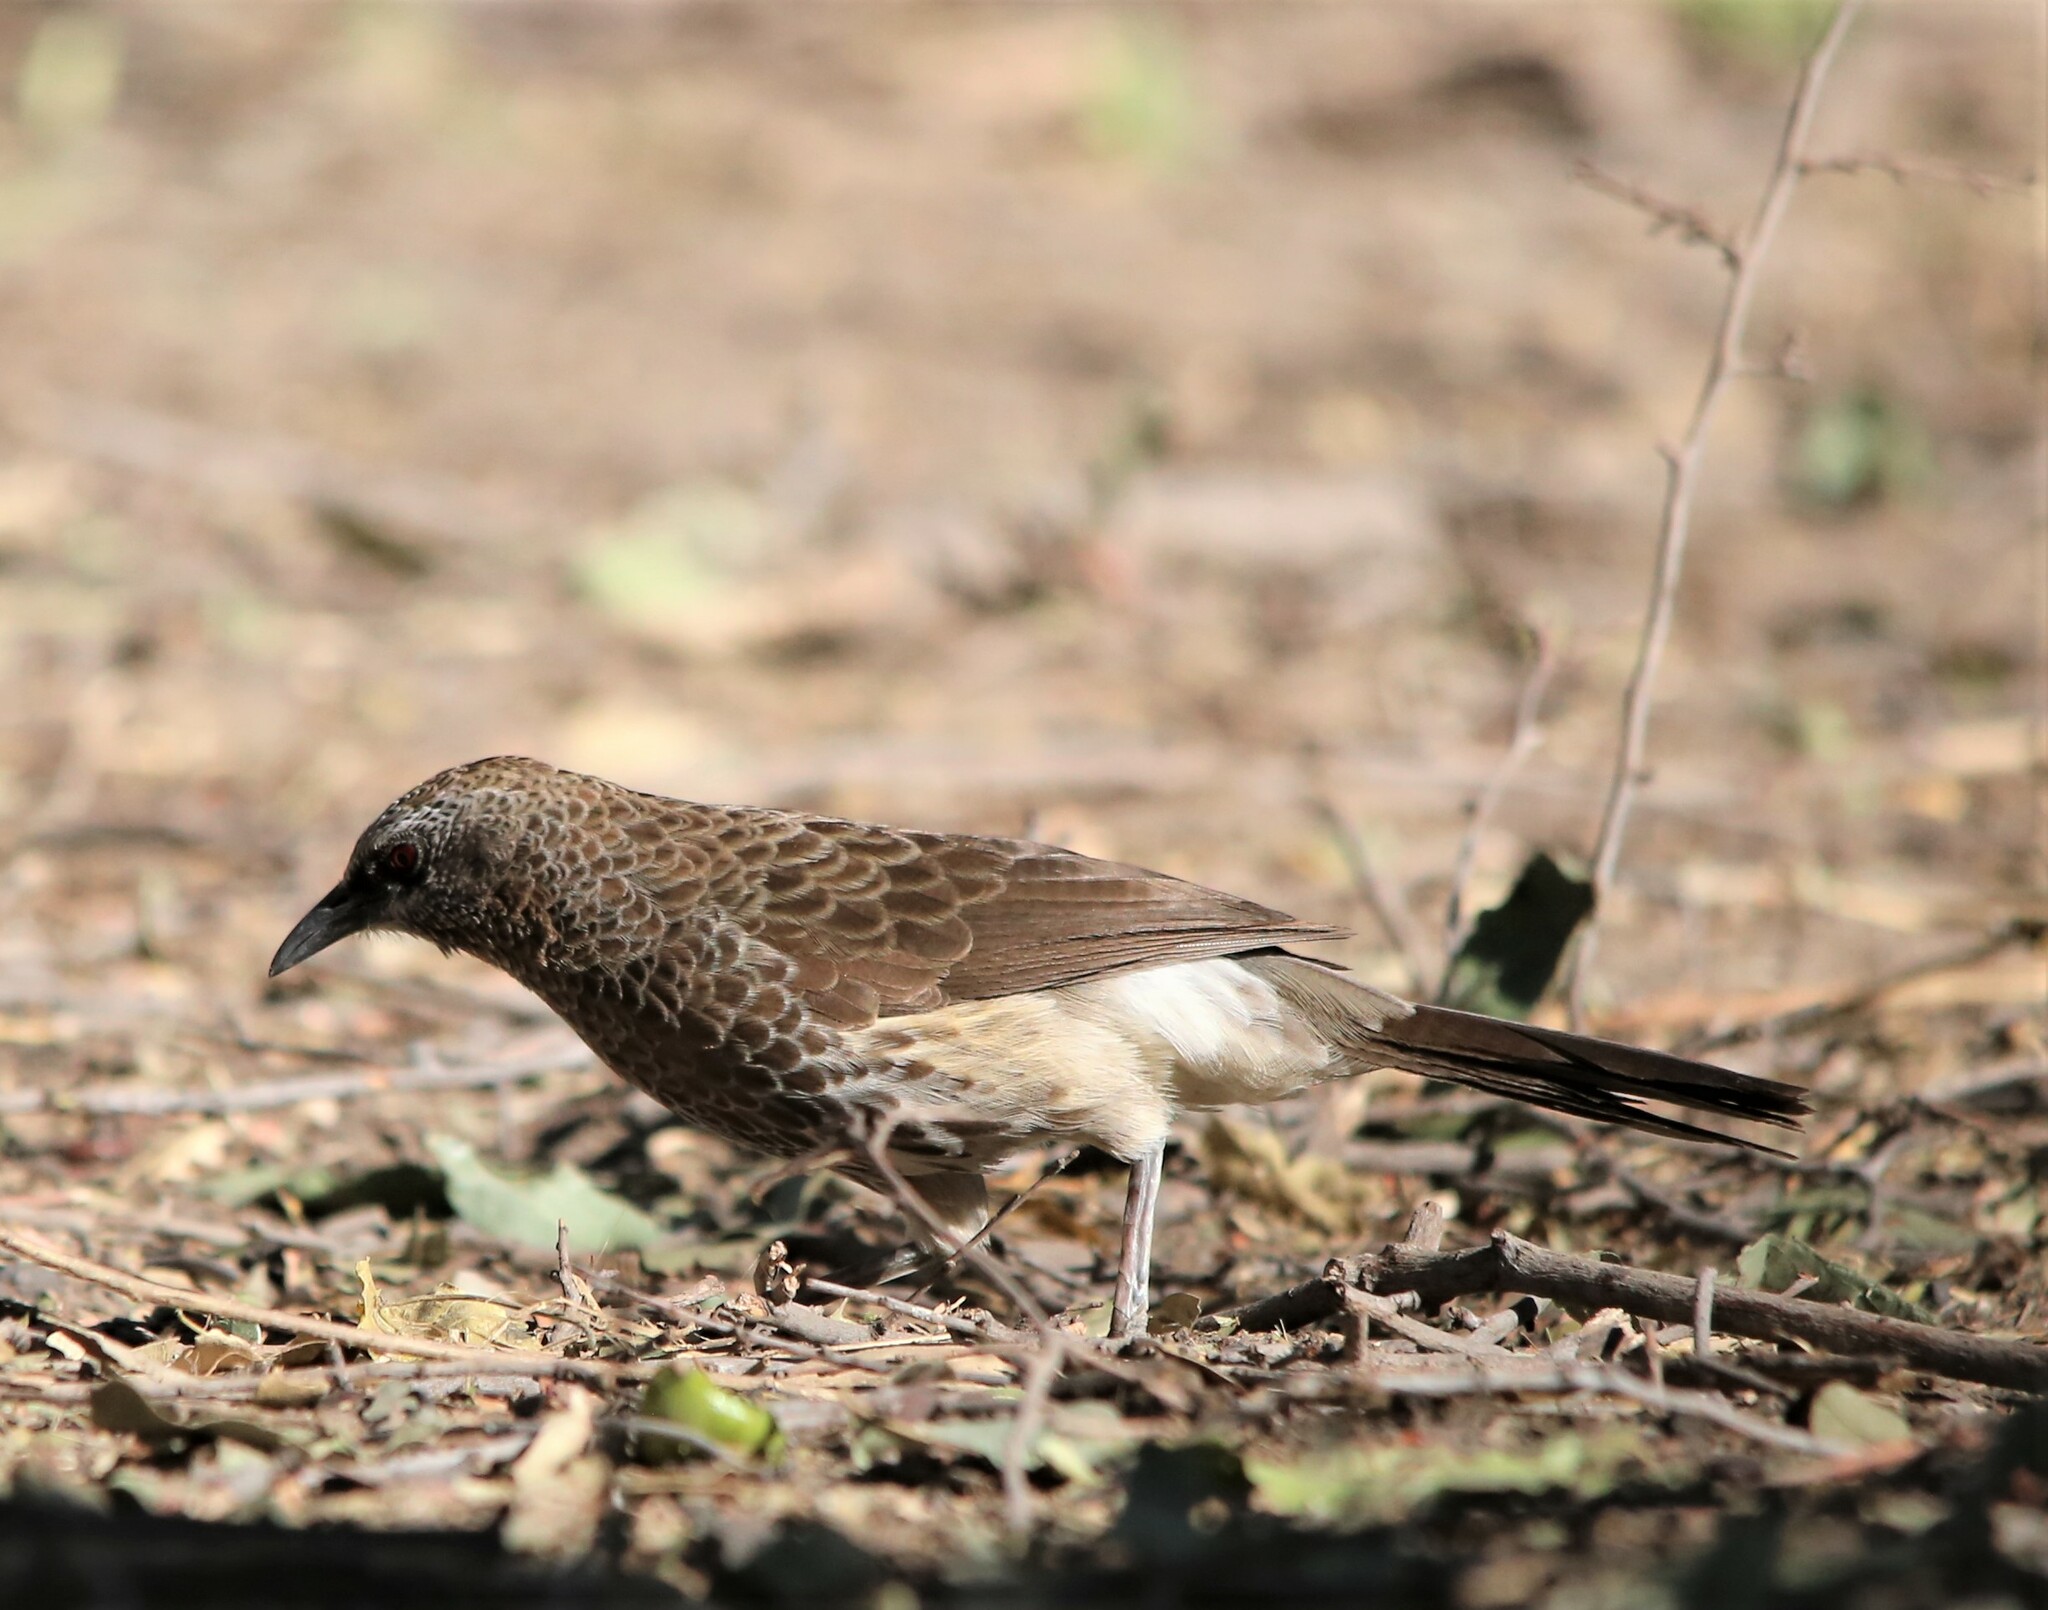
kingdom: Animalia
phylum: Chordata
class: Aves
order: Passeriformes
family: Leiothrichidae
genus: Turdoides
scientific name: Turdoides hartlaubii
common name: Hartlaub's babbler
